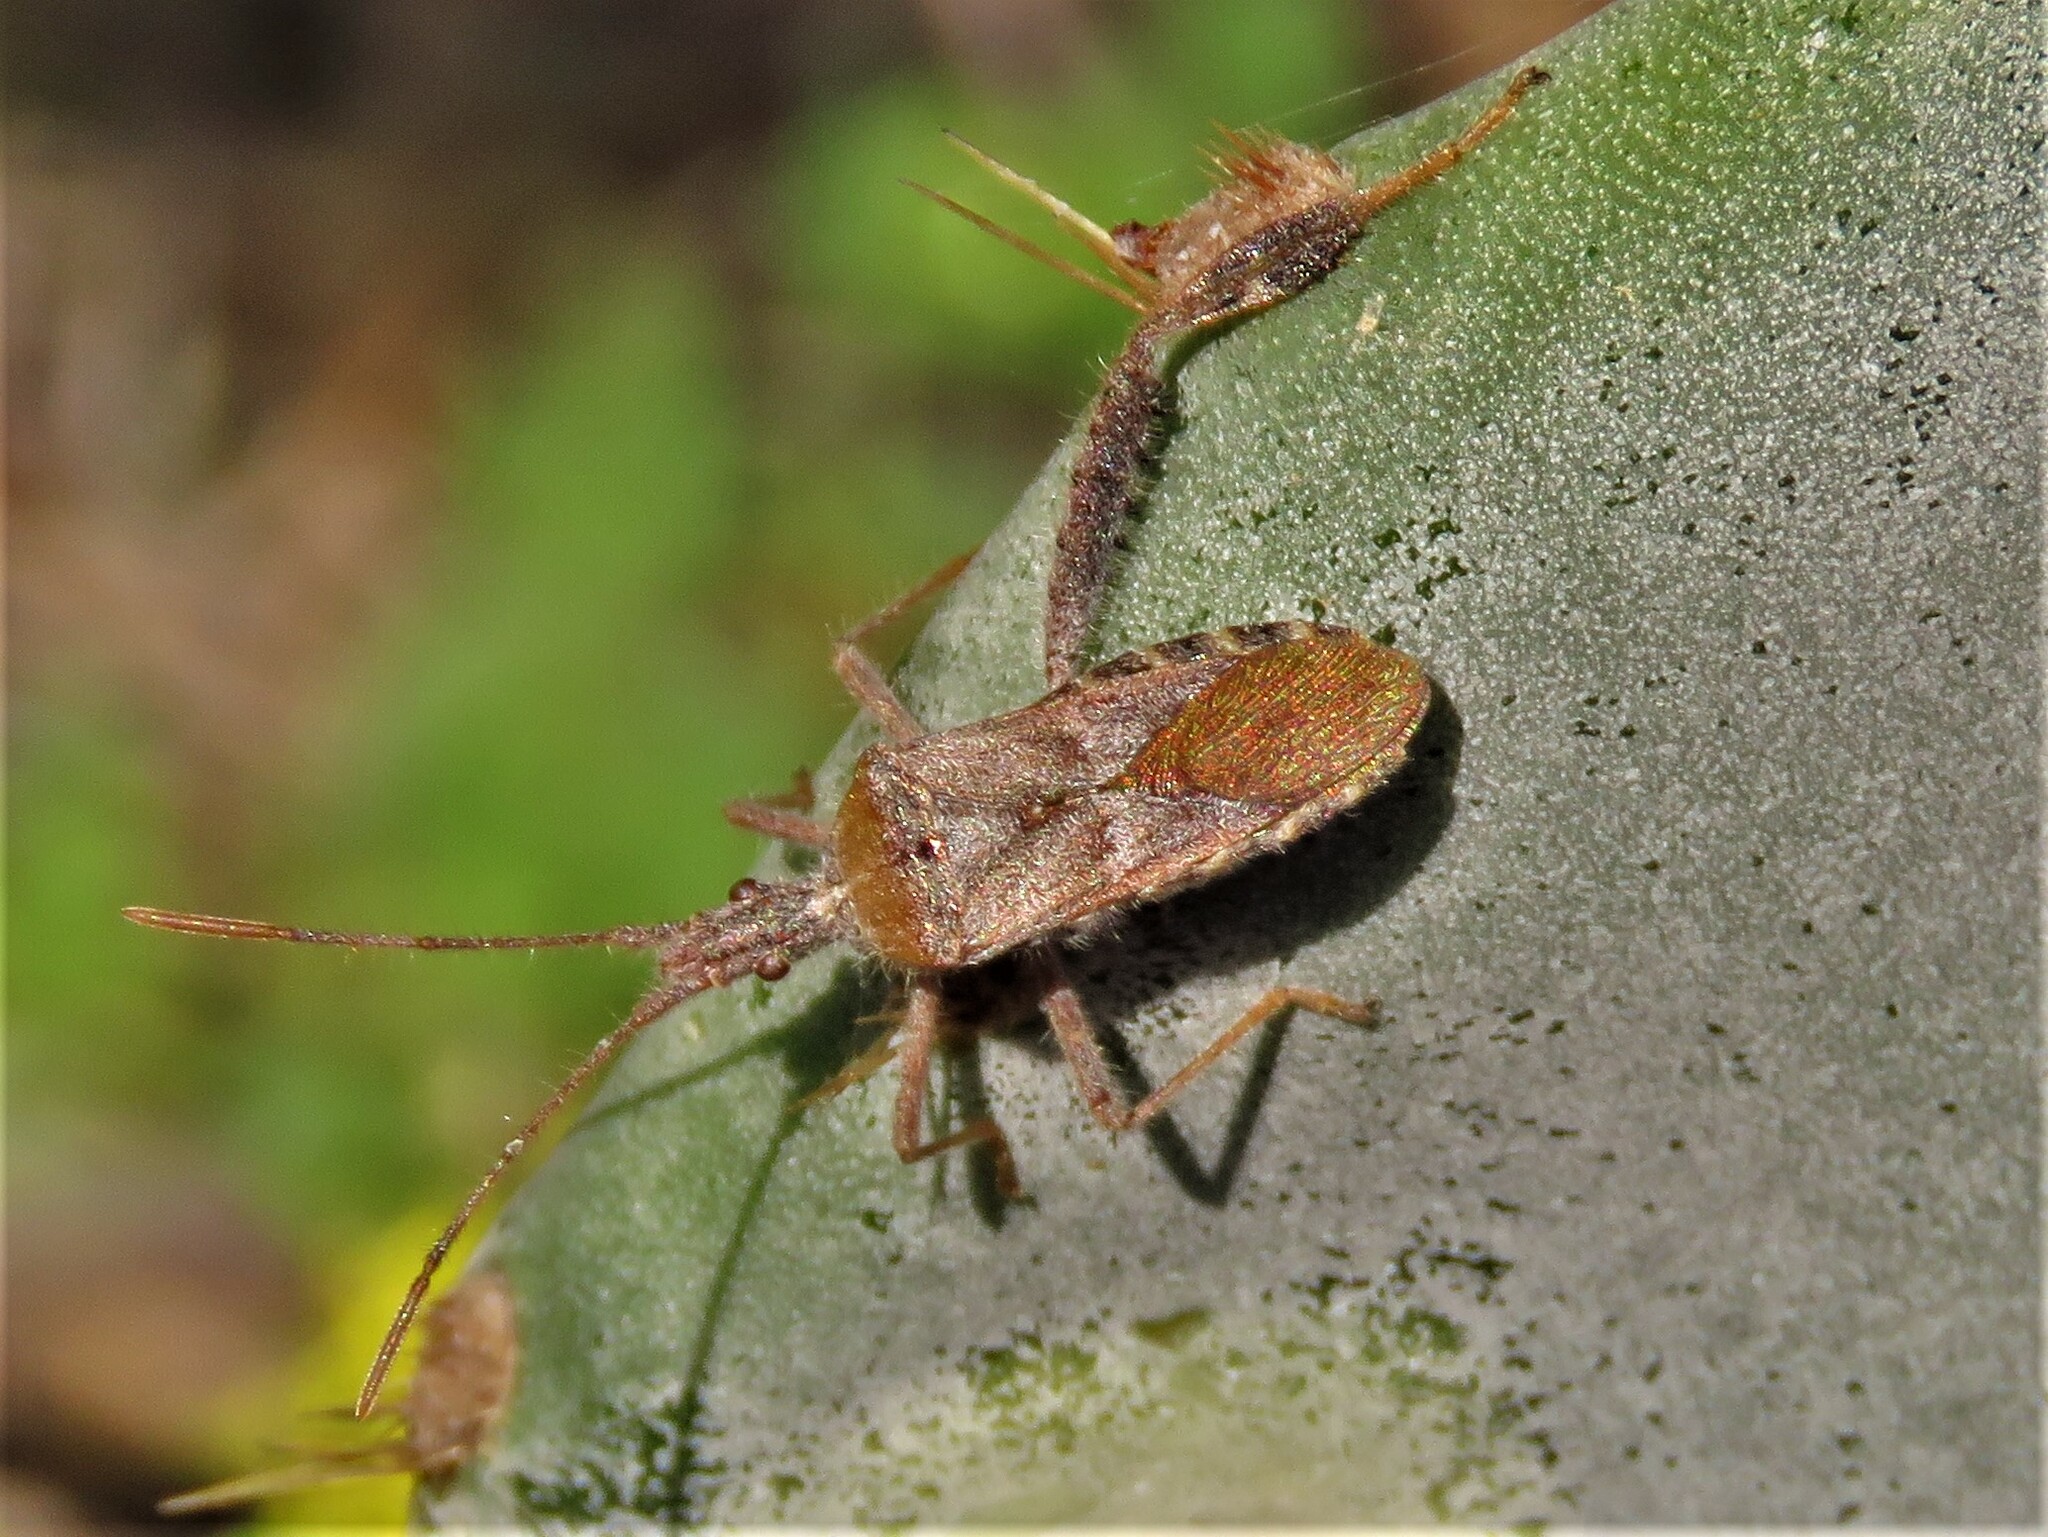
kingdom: Animalia
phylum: Arthropoda
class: Insecta
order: Hemiptera
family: Coreidae
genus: Narnia
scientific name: Narnia femorata
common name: Leaf-footed cactus bug
